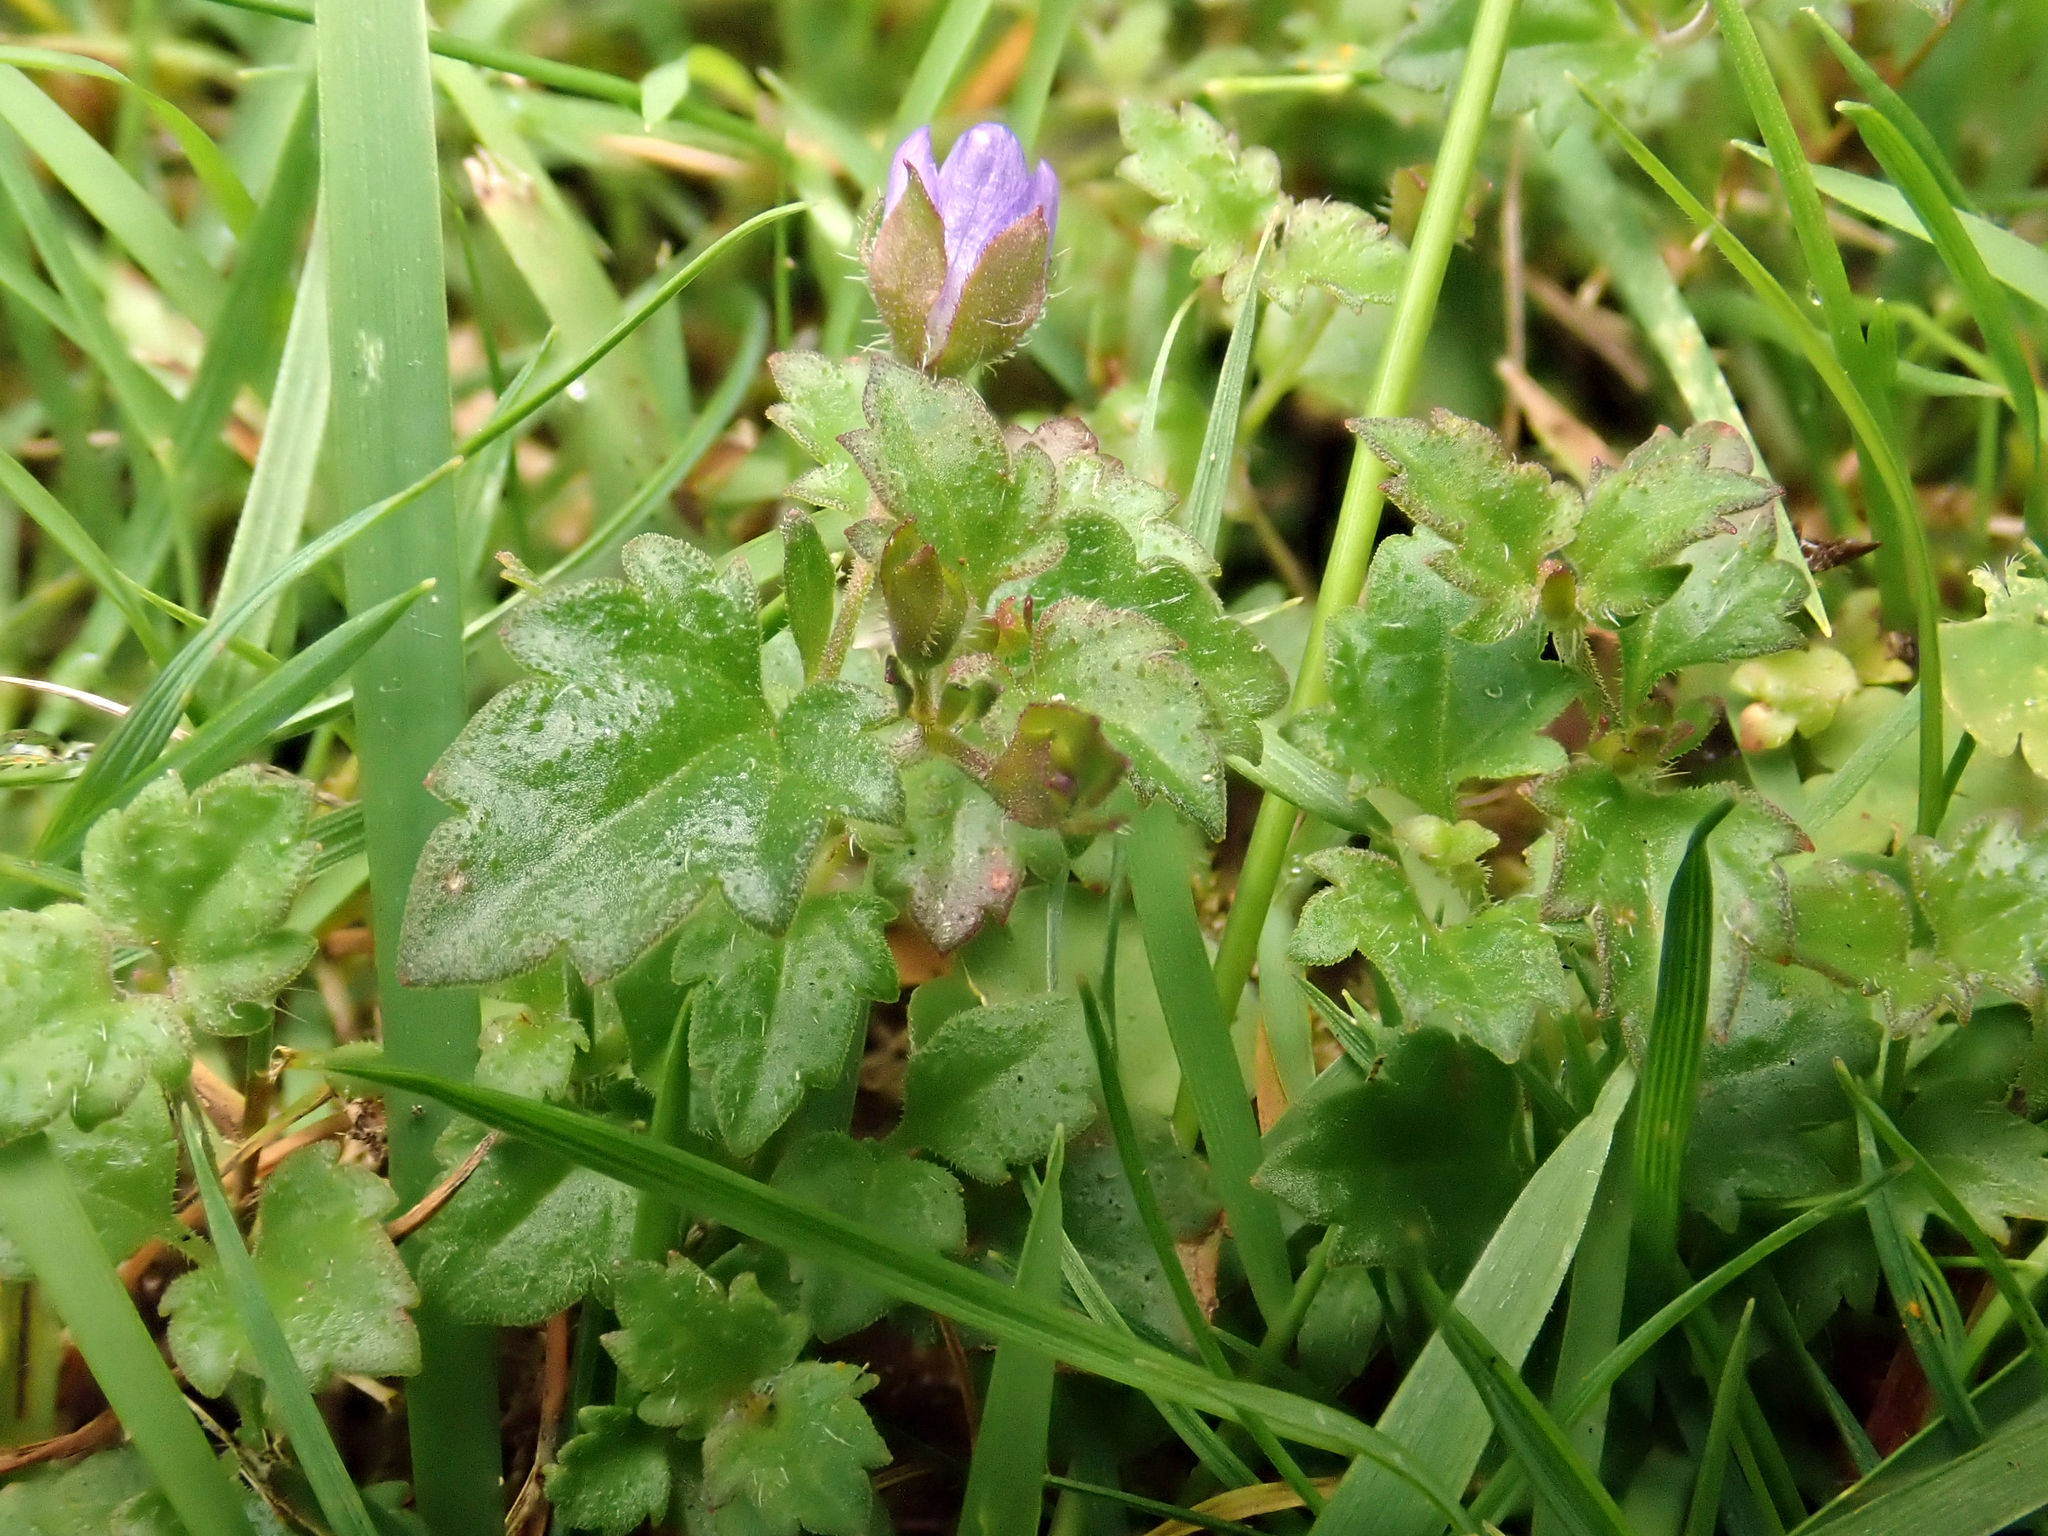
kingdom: Plantae
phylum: Tracheophyta
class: Magnoliopsida
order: Lamiales
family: Plantaginaceae
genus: Veronica
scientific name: Veronica plebeia
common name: Speedwell
